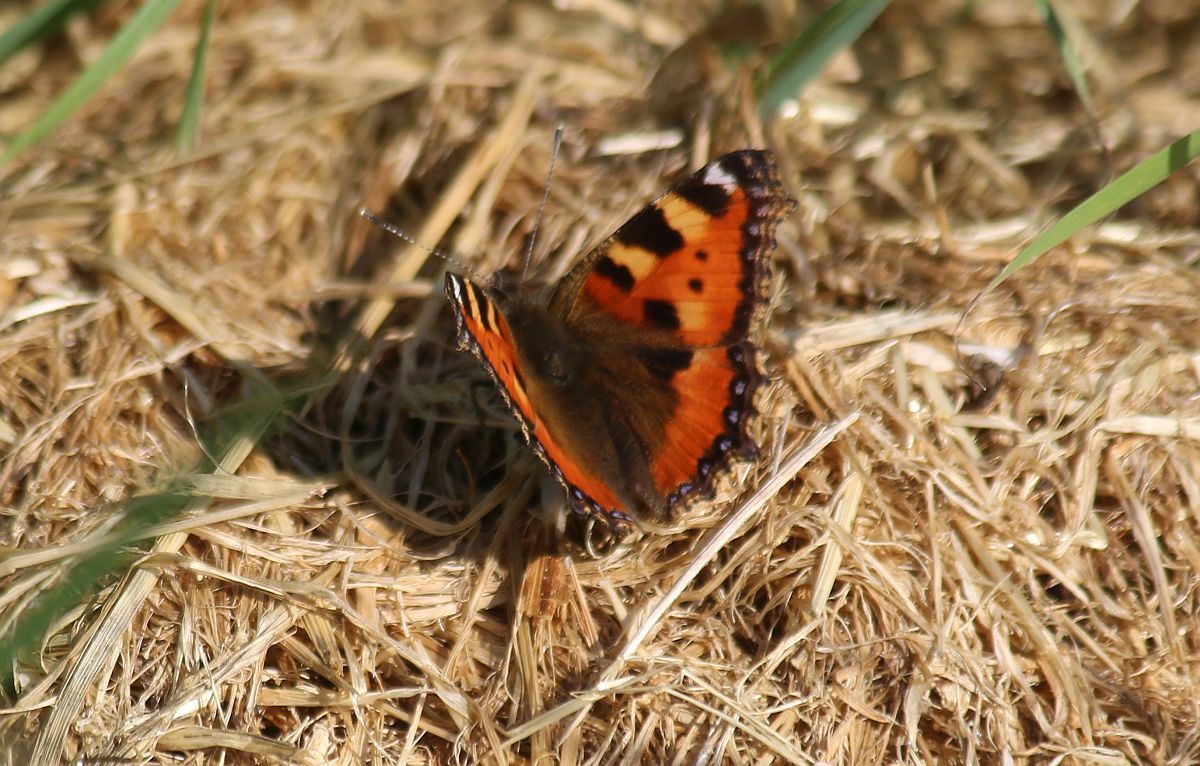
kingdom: Animalia
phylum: Arthropoda
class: Insecta
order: Lepidoptera
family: Nymphalidae
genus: Aglais
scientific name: Aglais urticae
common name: Small tortoiseshell
